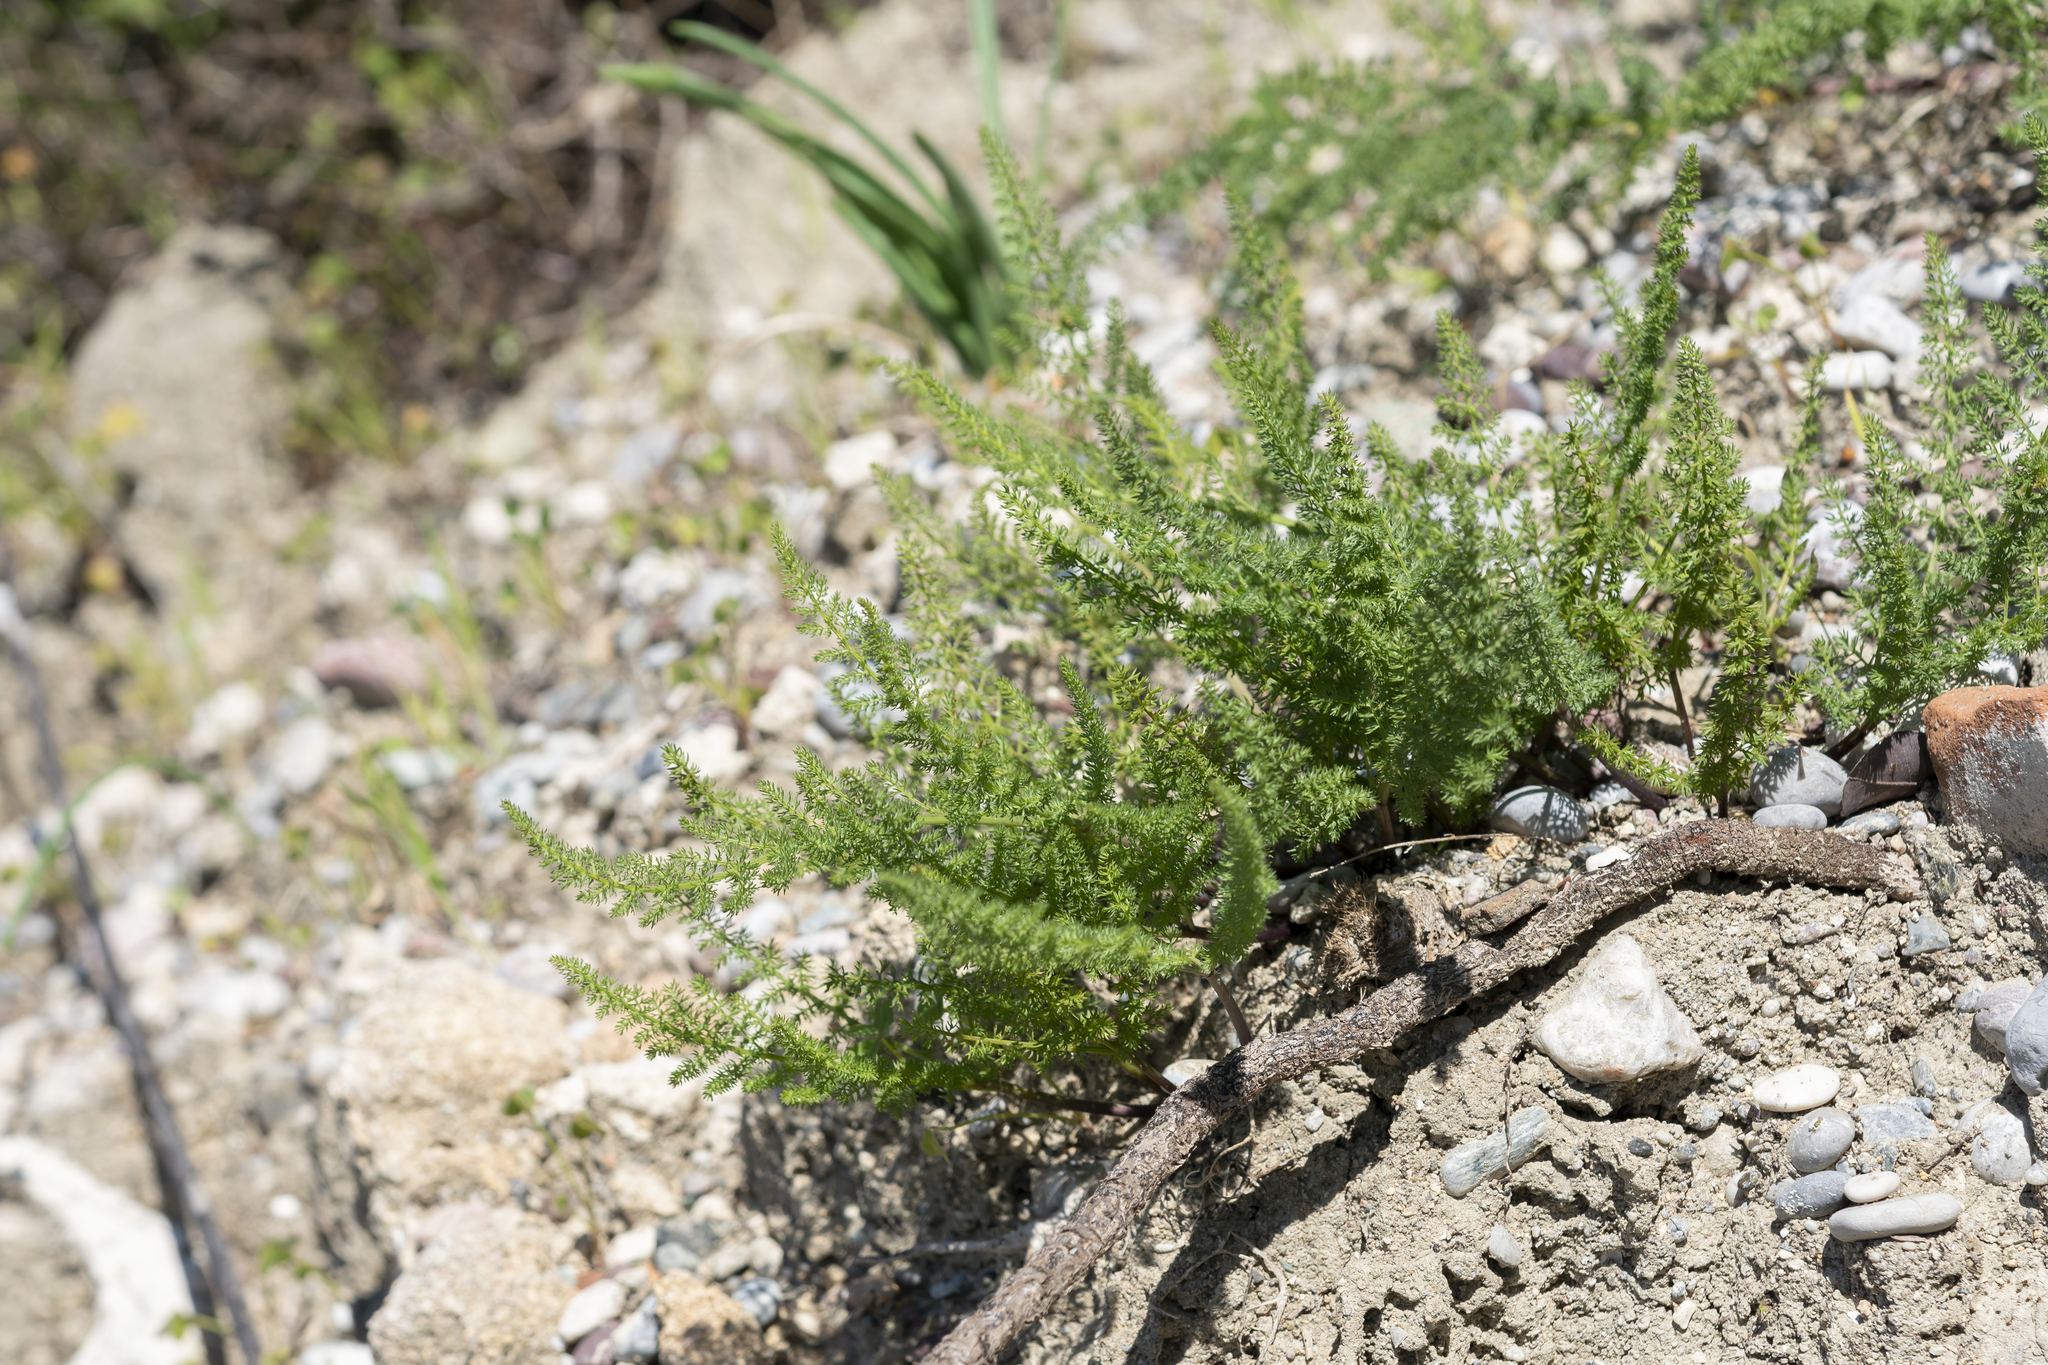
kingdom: Plantae
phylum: Tracheophyta
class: Magnoliopsida
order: Apiales
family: Apiaceae
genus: Thapsia
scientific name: Thapsia asclepium
